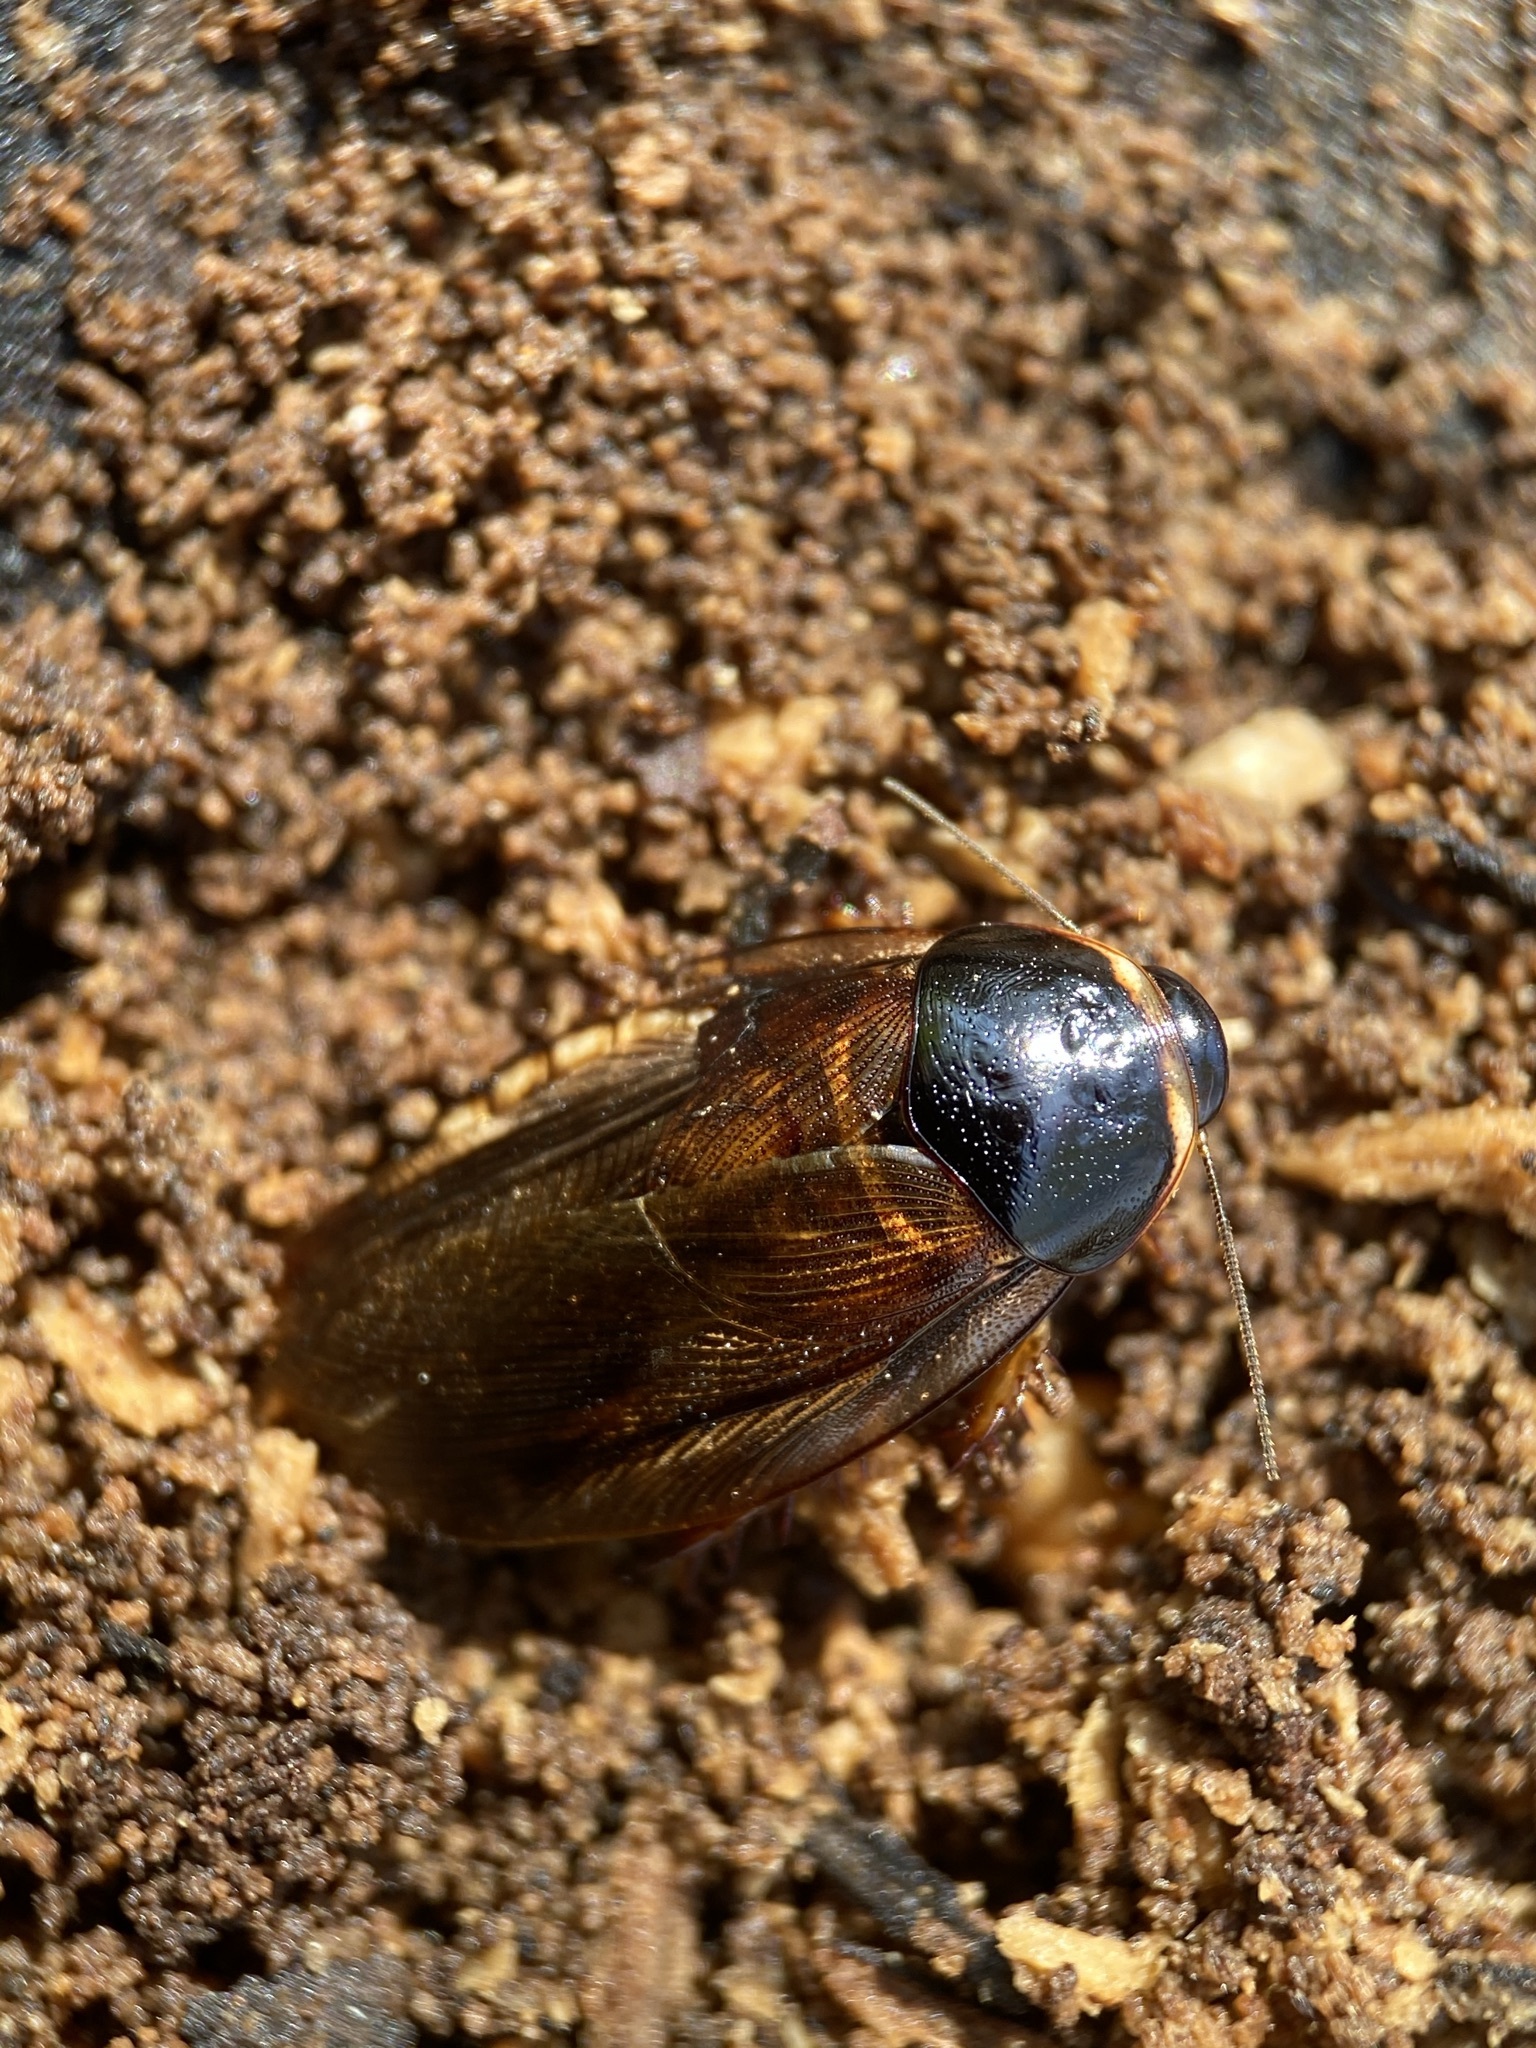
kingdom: Animalia
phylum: Arthropoda
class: Insecta
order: Blattodea
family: Blaberidae
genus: Pycnoscelus
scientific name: Pycnoscelus surinamensis
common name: Surinam cockroach
